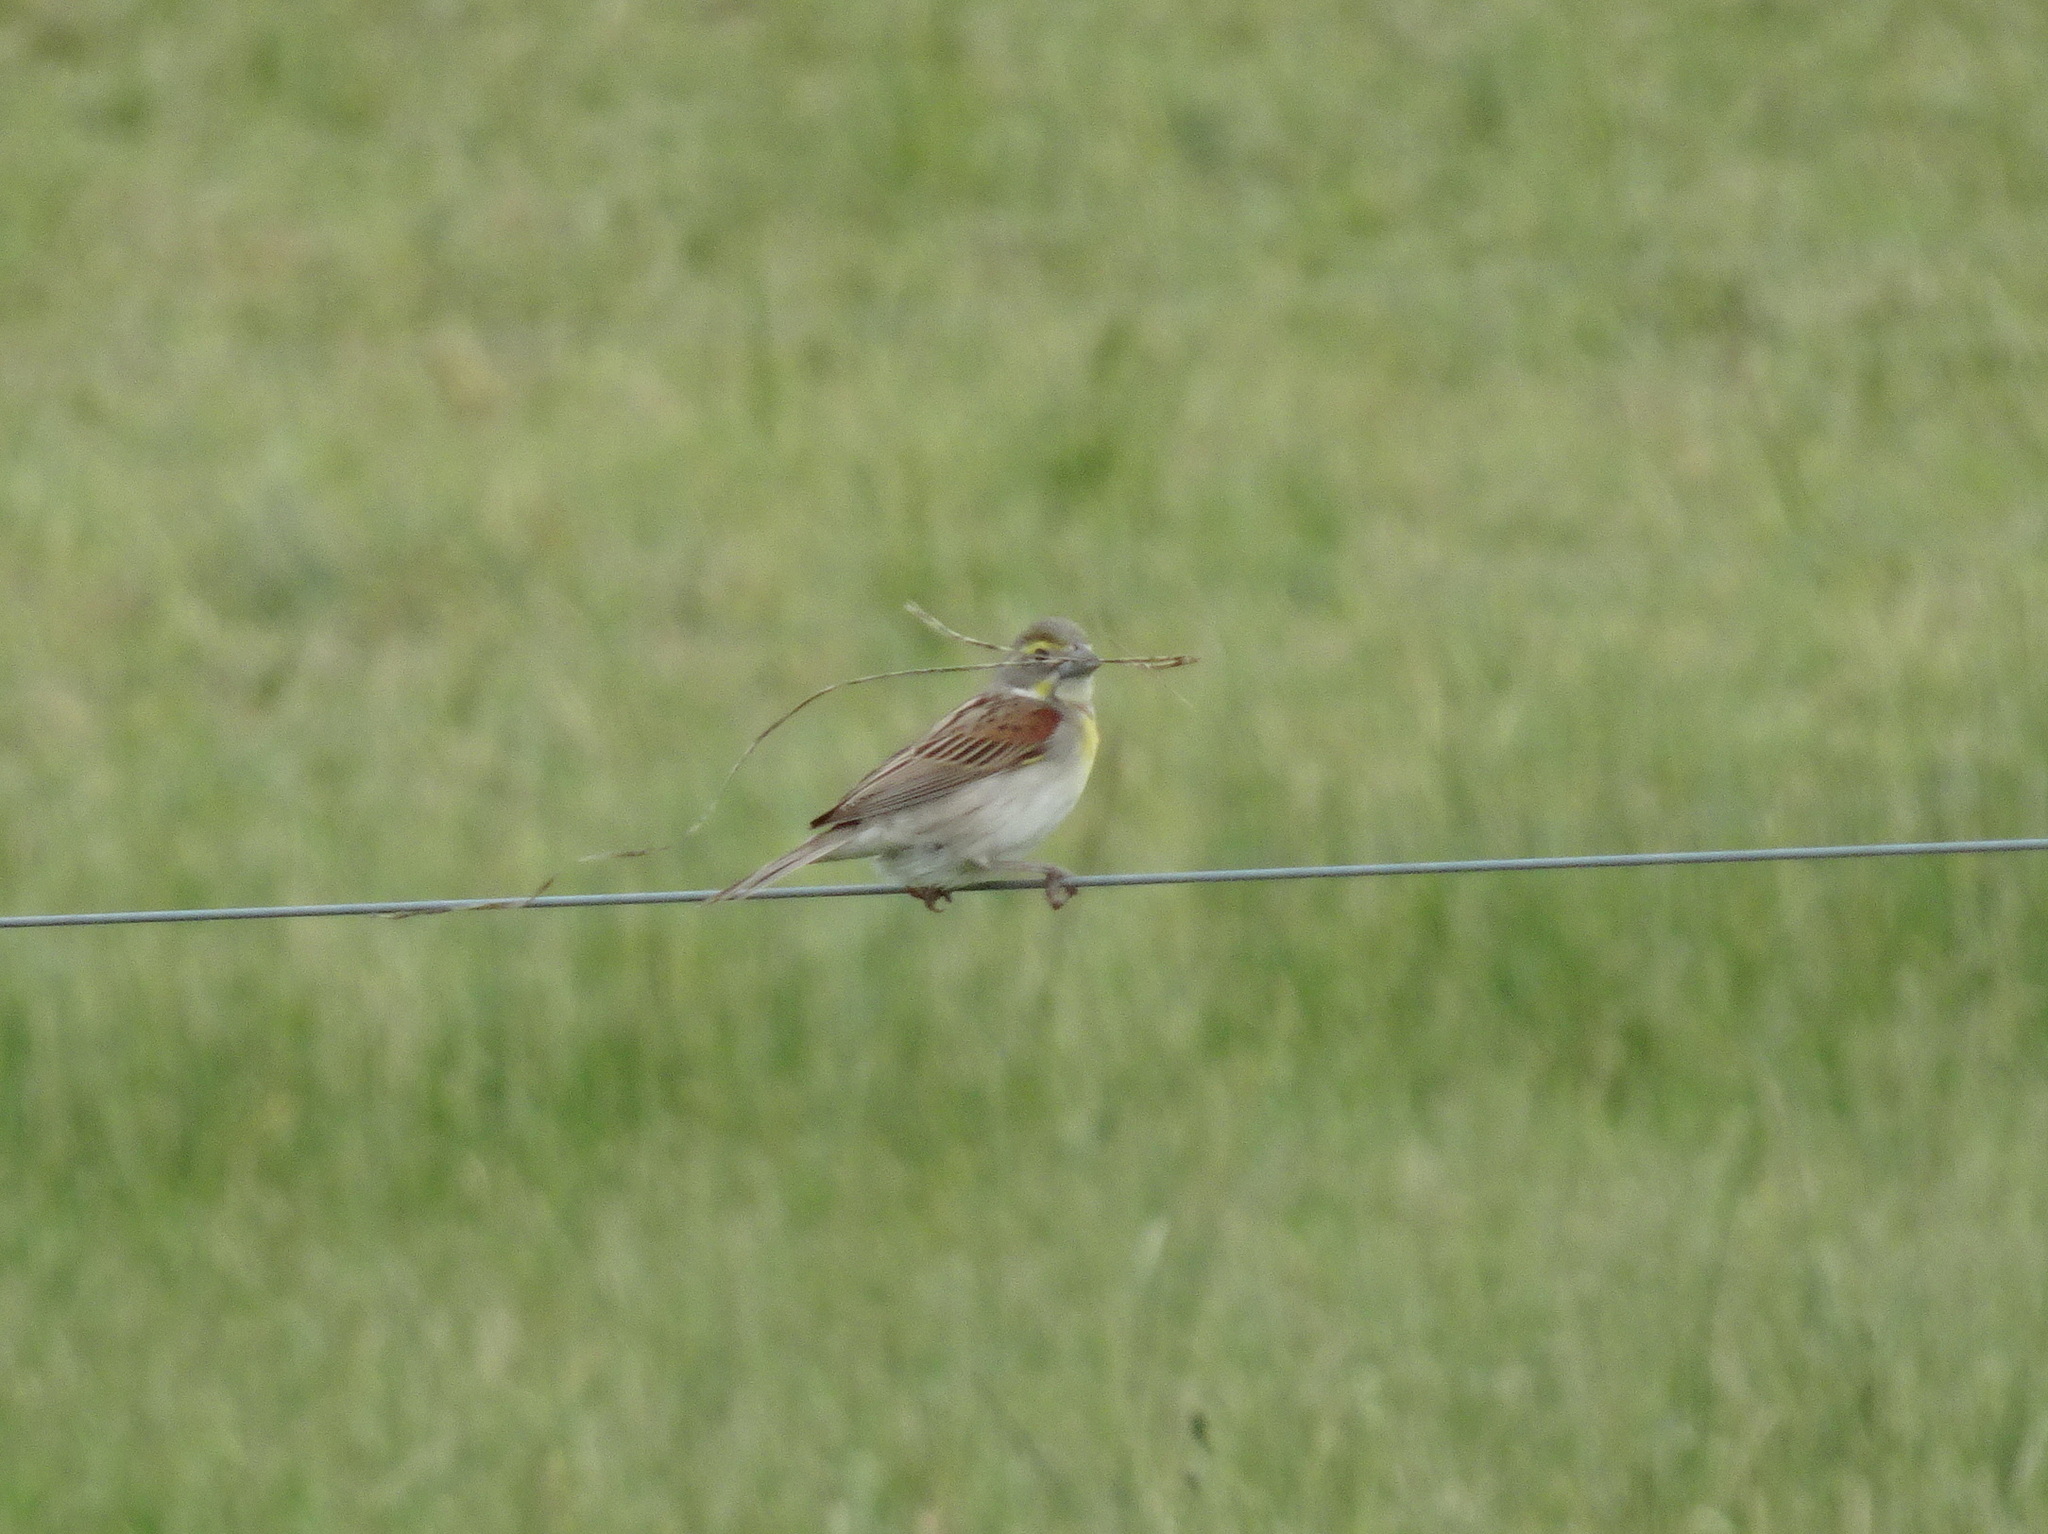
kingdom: Animalia
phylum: Chordata
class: Aves
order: Passeriformes
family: Cardinalidae
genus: Spiza
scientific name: Spiza americana
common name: Dickcissel
